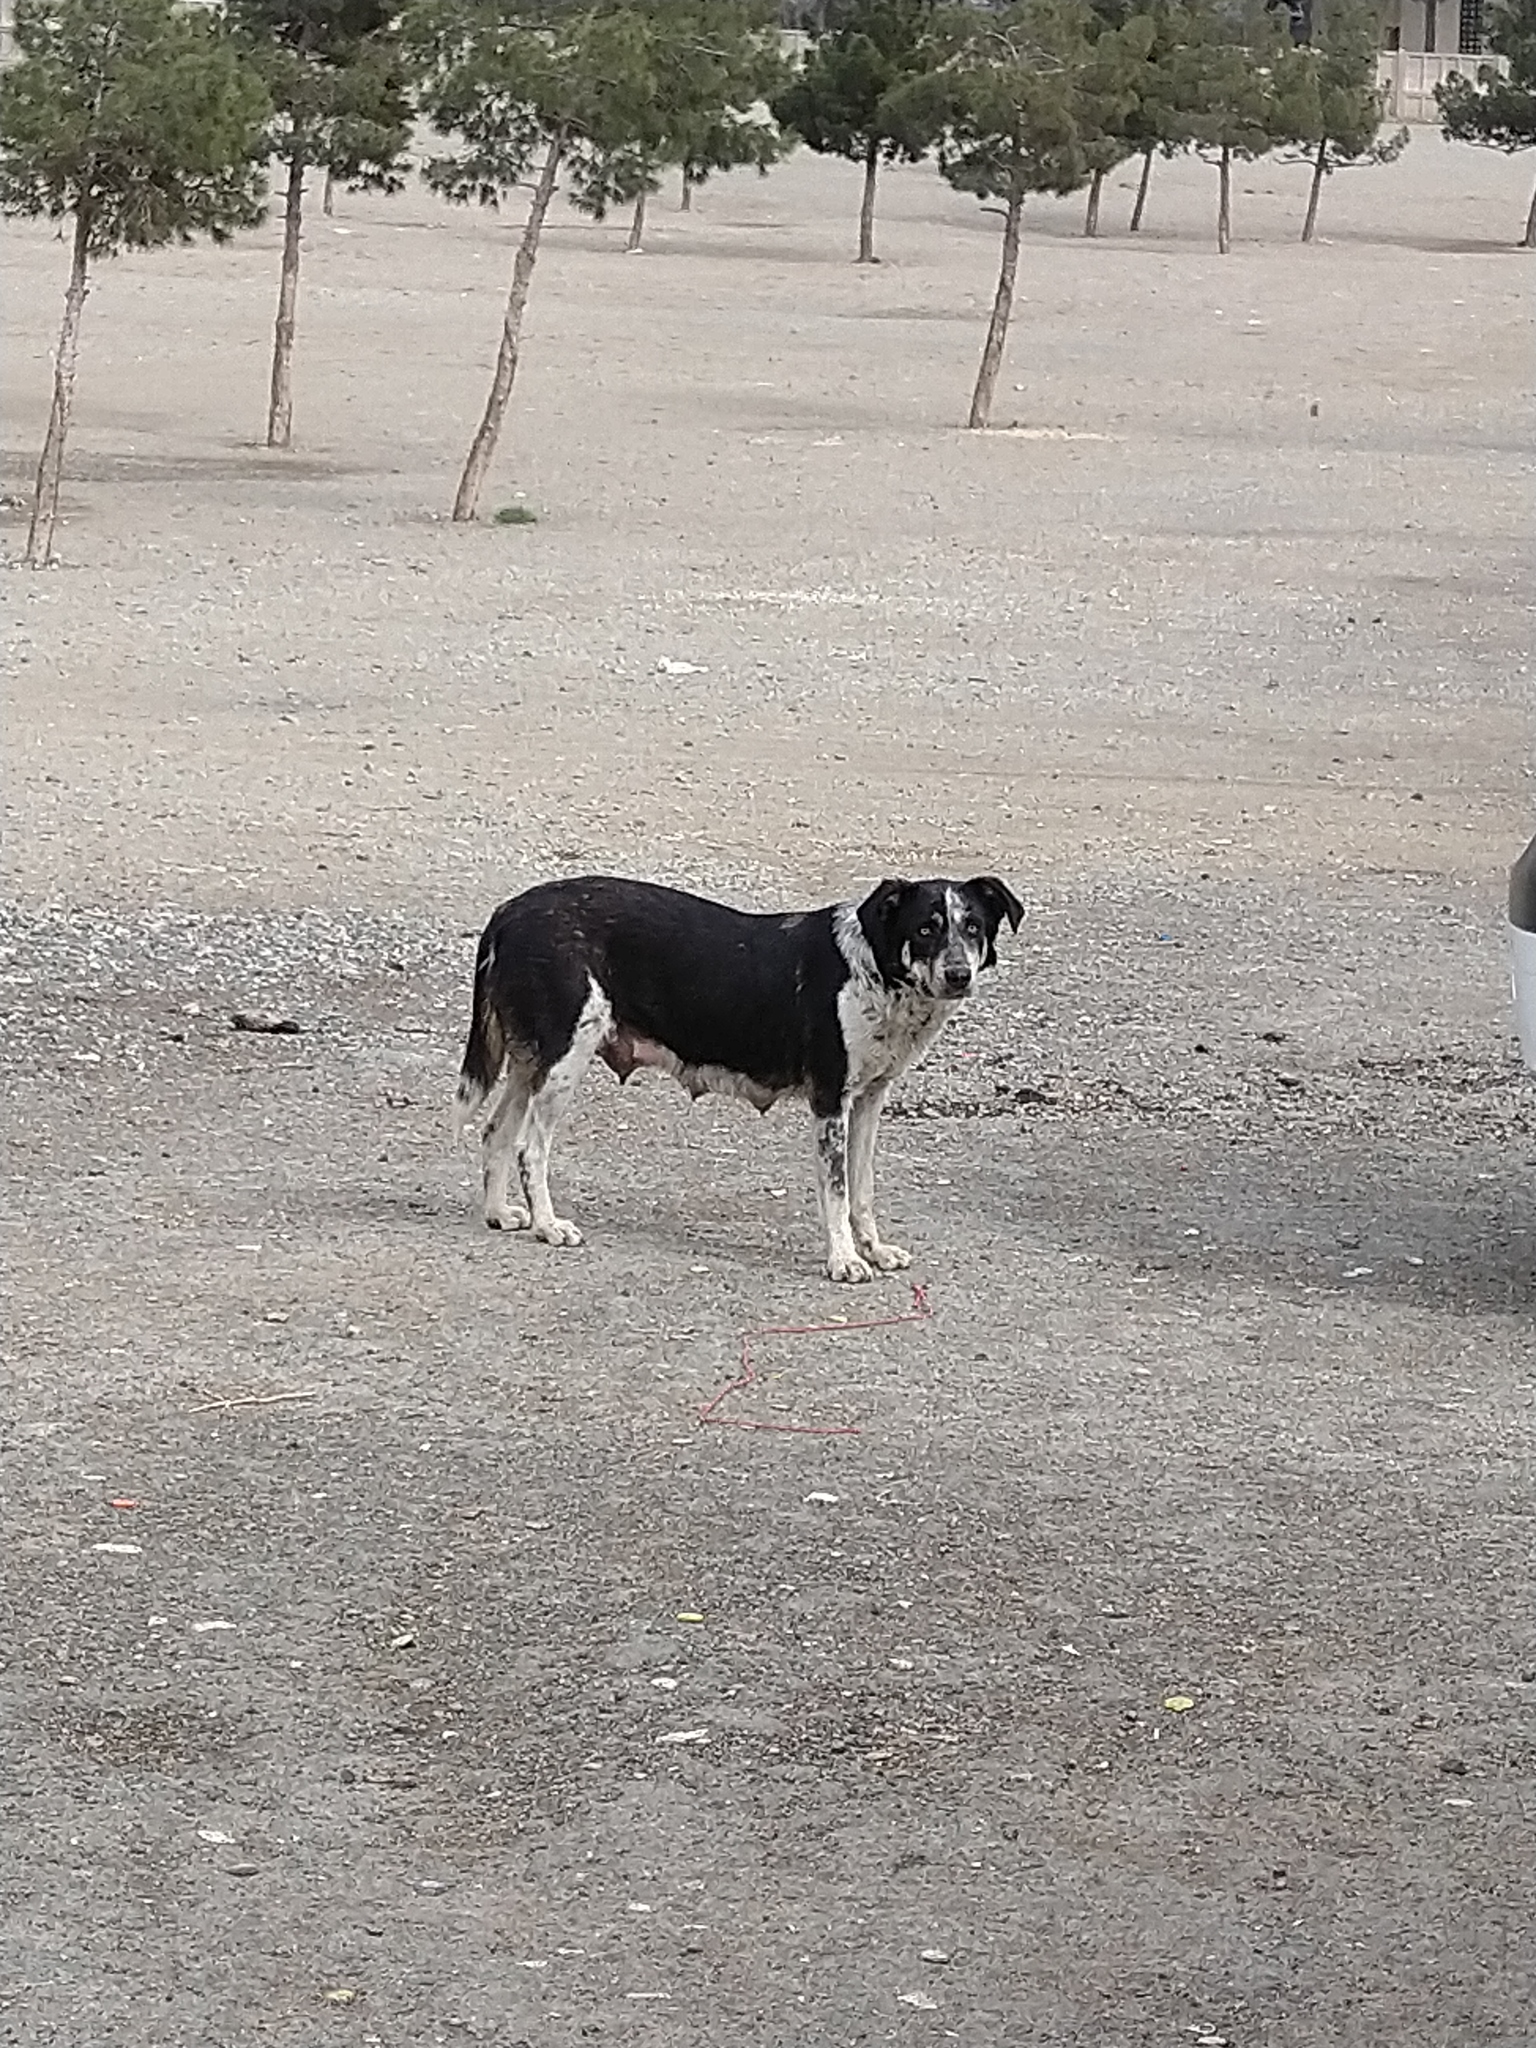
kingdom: Animalia
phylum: Chordata
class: Mammalia
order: Carnivora
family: Canidae
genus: Canis
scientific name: Canis lupus
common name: Gray wolf
